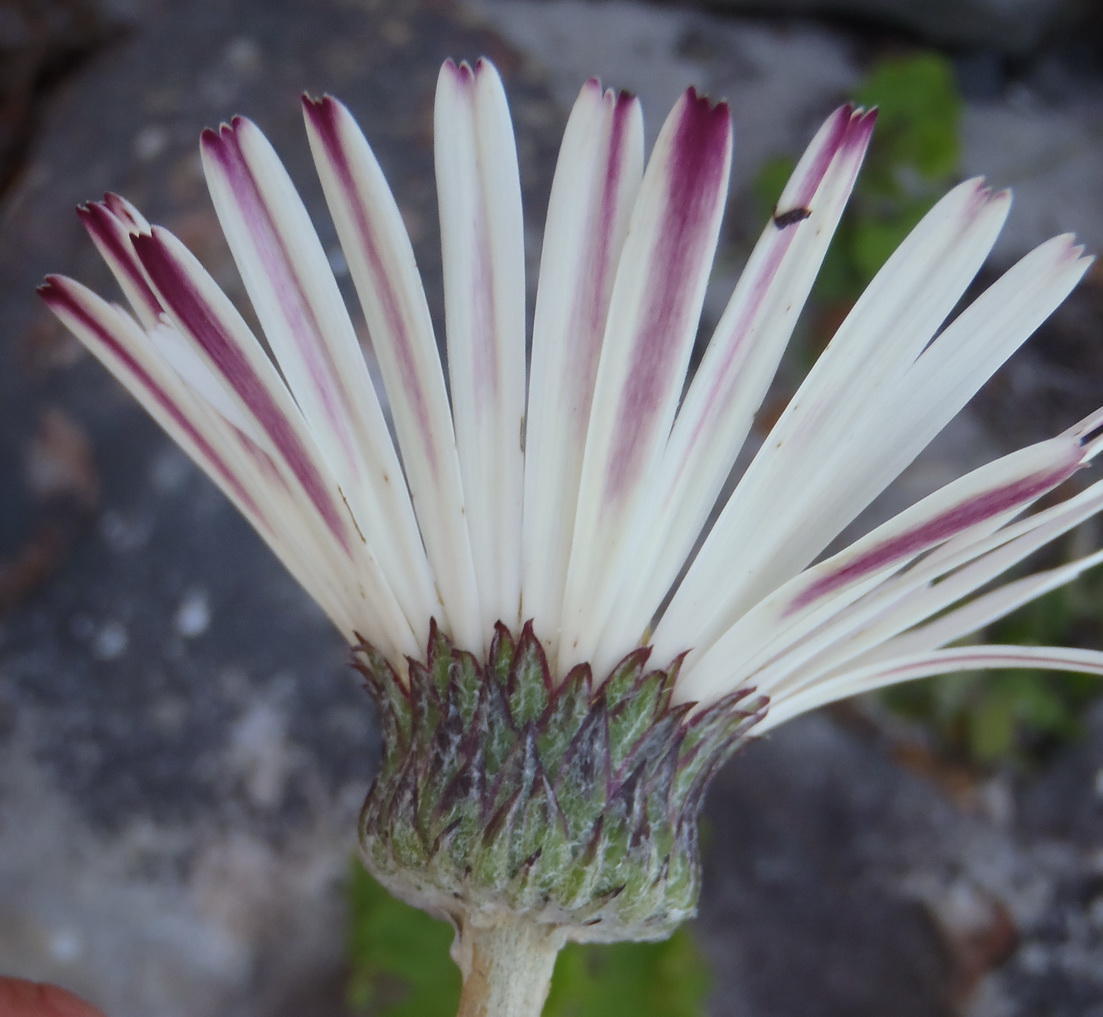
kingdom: Plantae
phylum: Tracheophyta
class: Magnoliopsida
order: Asterales
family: Asteraceae
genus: Gerbera
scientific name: Gerbera wrightii
